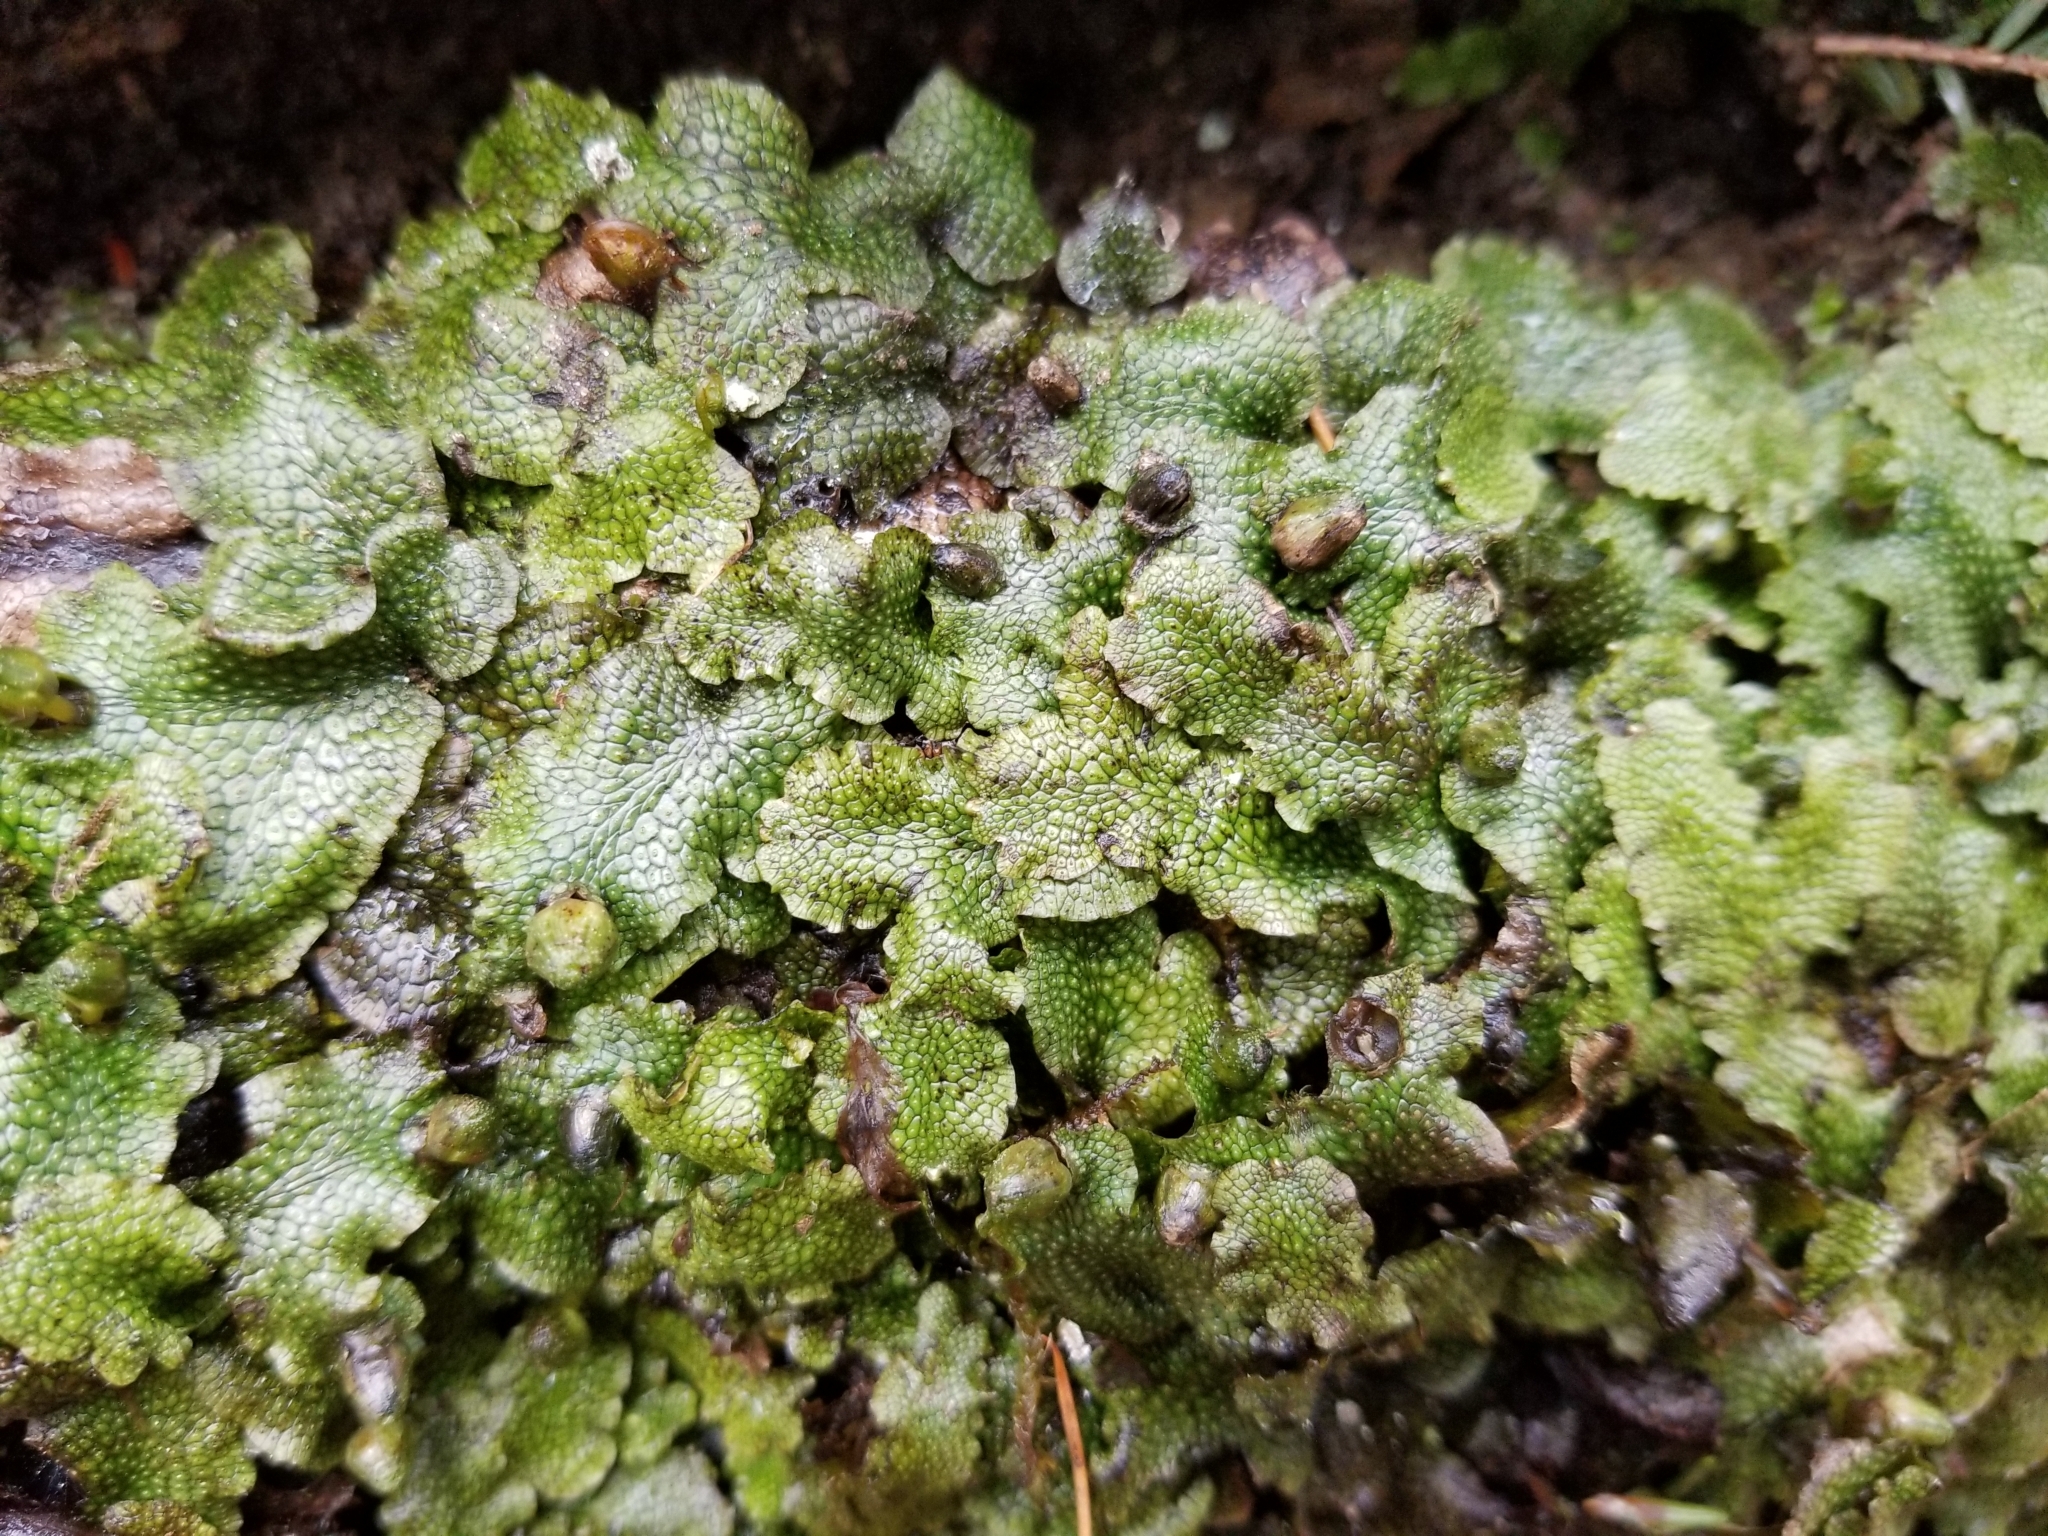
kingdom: Plantae
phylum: Marchantiophyta
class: Marchantiopsida
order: Marchantiales
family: Conocephalaceae
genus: Conocephalum
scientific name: Conocephalum salebrosum
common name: Cat-tongue liverwort
